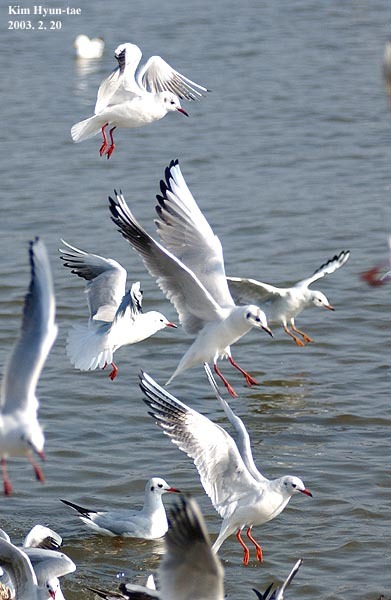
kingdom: Animalia
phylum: Chordata
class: Aves
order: Charadriiformes
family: Laridae
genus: Chroicocephalus
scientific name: Chroicocephalus ridibundus
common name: Black-headed gull
